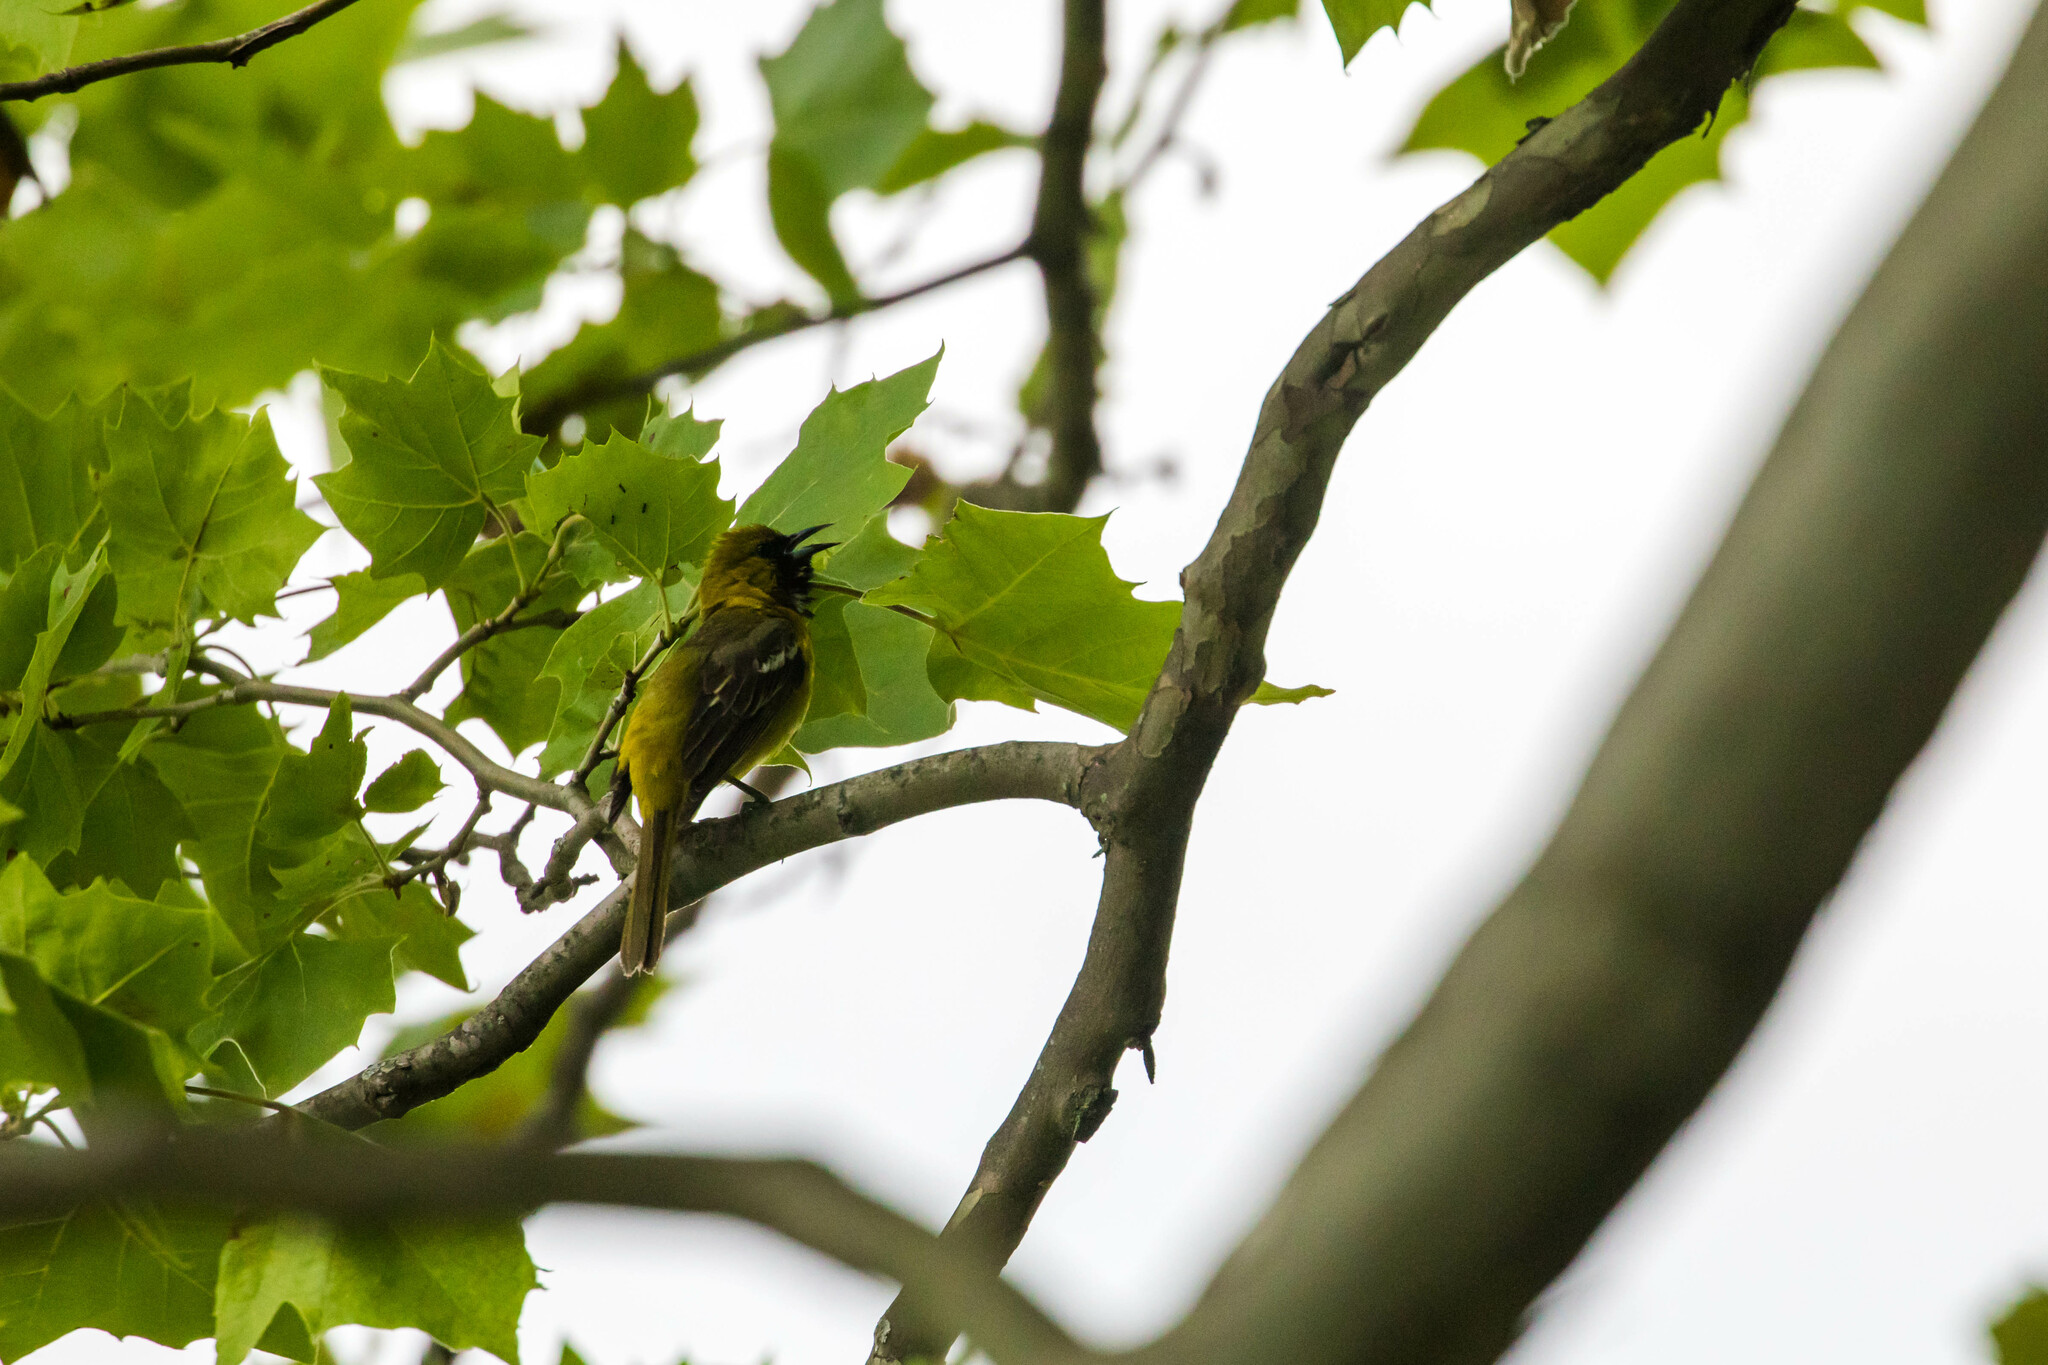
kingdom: Animalia
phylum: Chordata
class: Aves
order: Passeriformes
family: Icteridae
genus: Icterus
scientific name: Icterus spurius
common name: Orchard oriole
